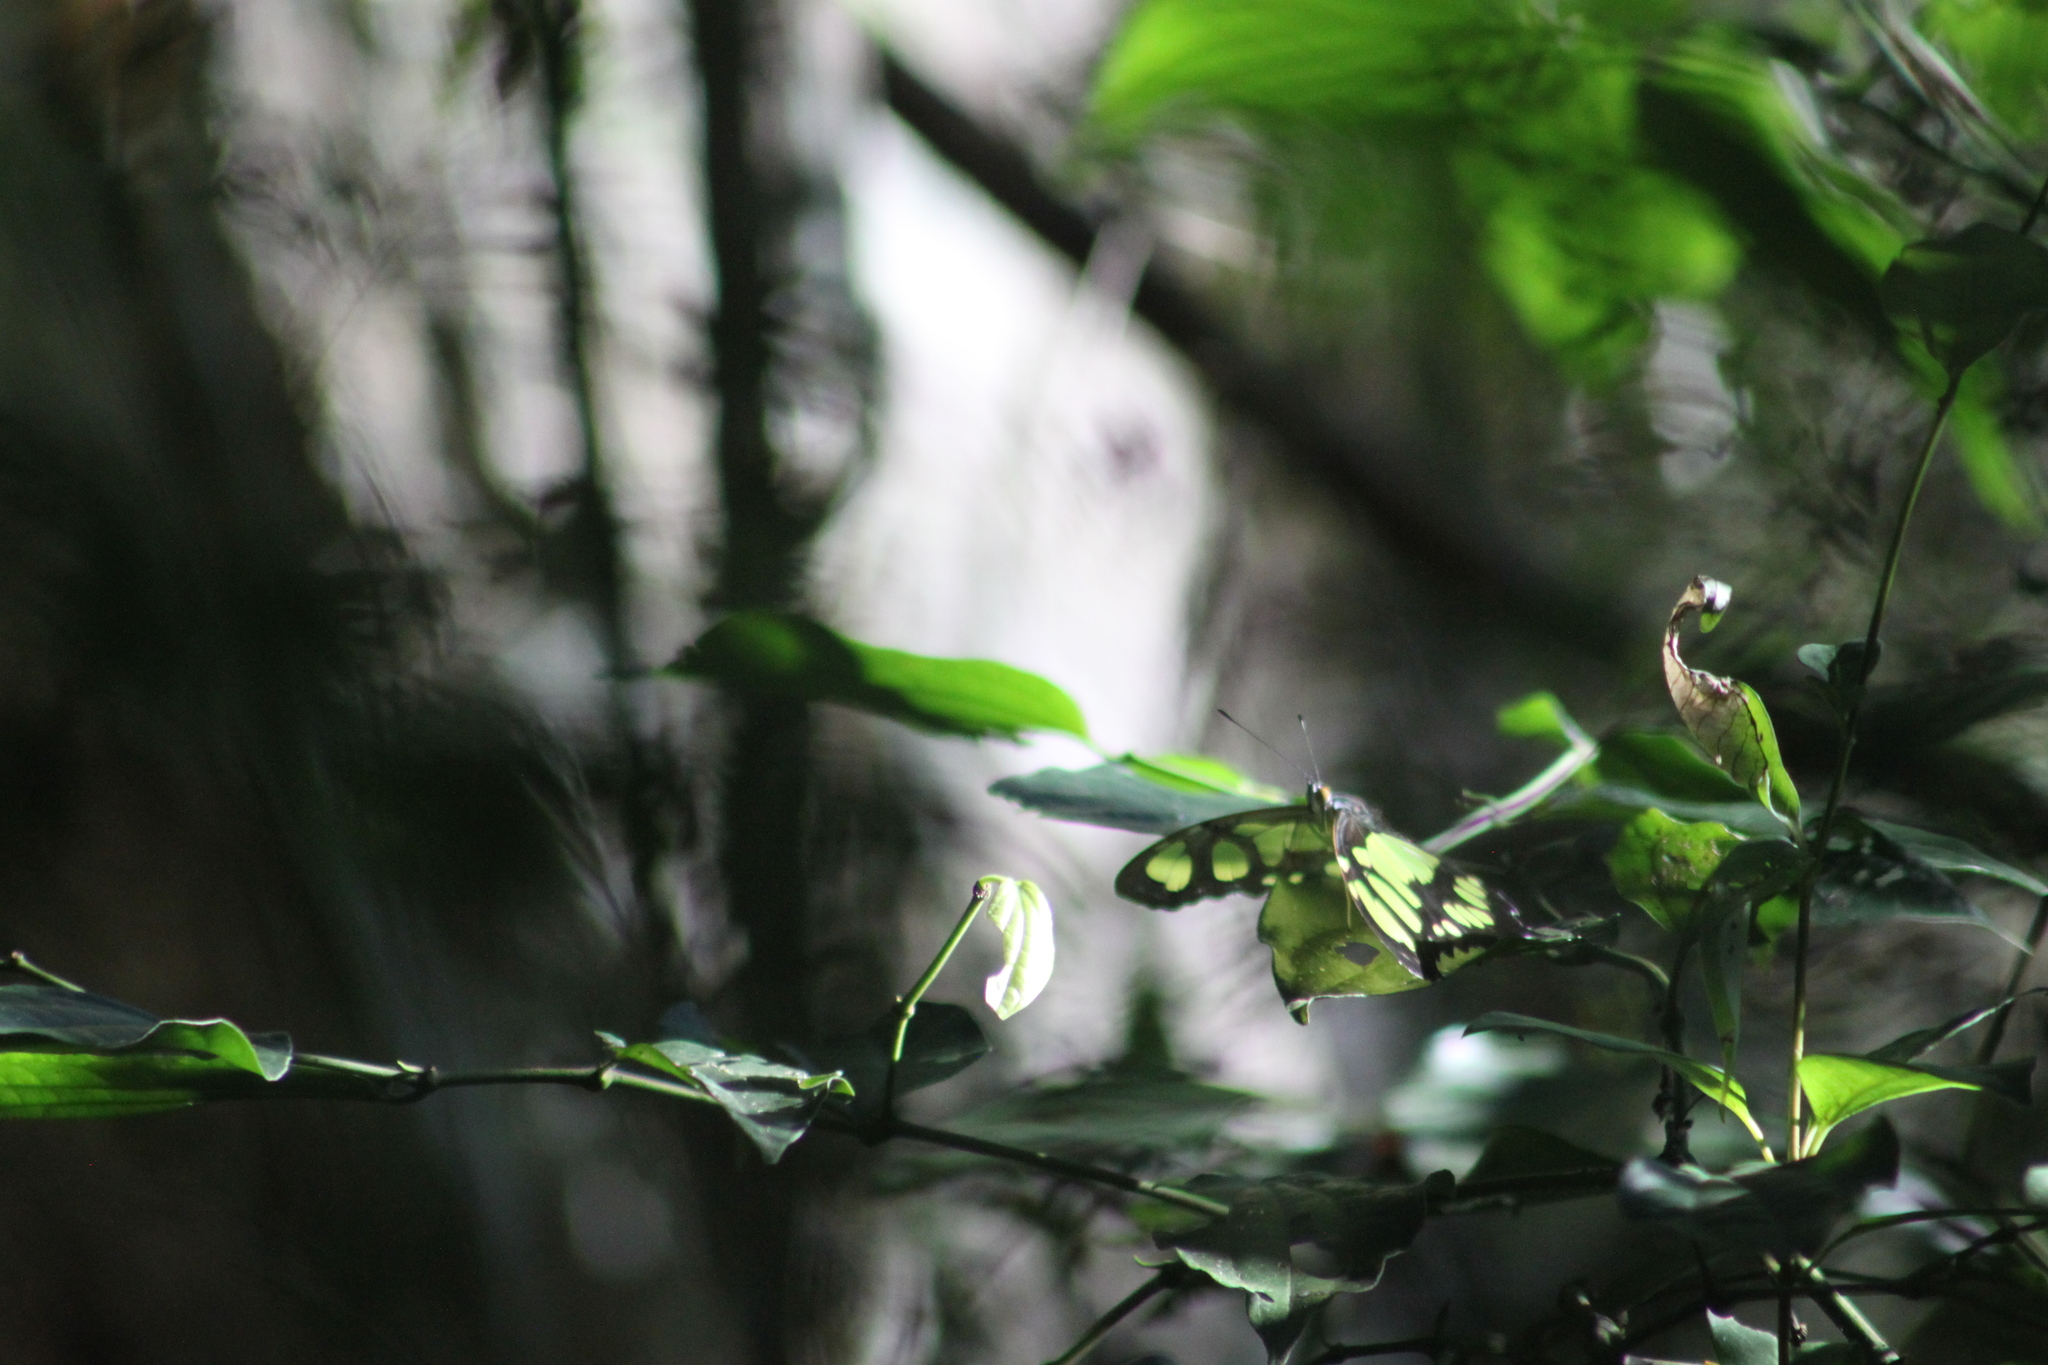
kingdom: Animalia
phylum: Arthropoda
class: Insecta
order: Lepidoptera
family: Nymphalidae
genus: Siproeta
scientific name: Siproeta stelenes
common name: Malachite
